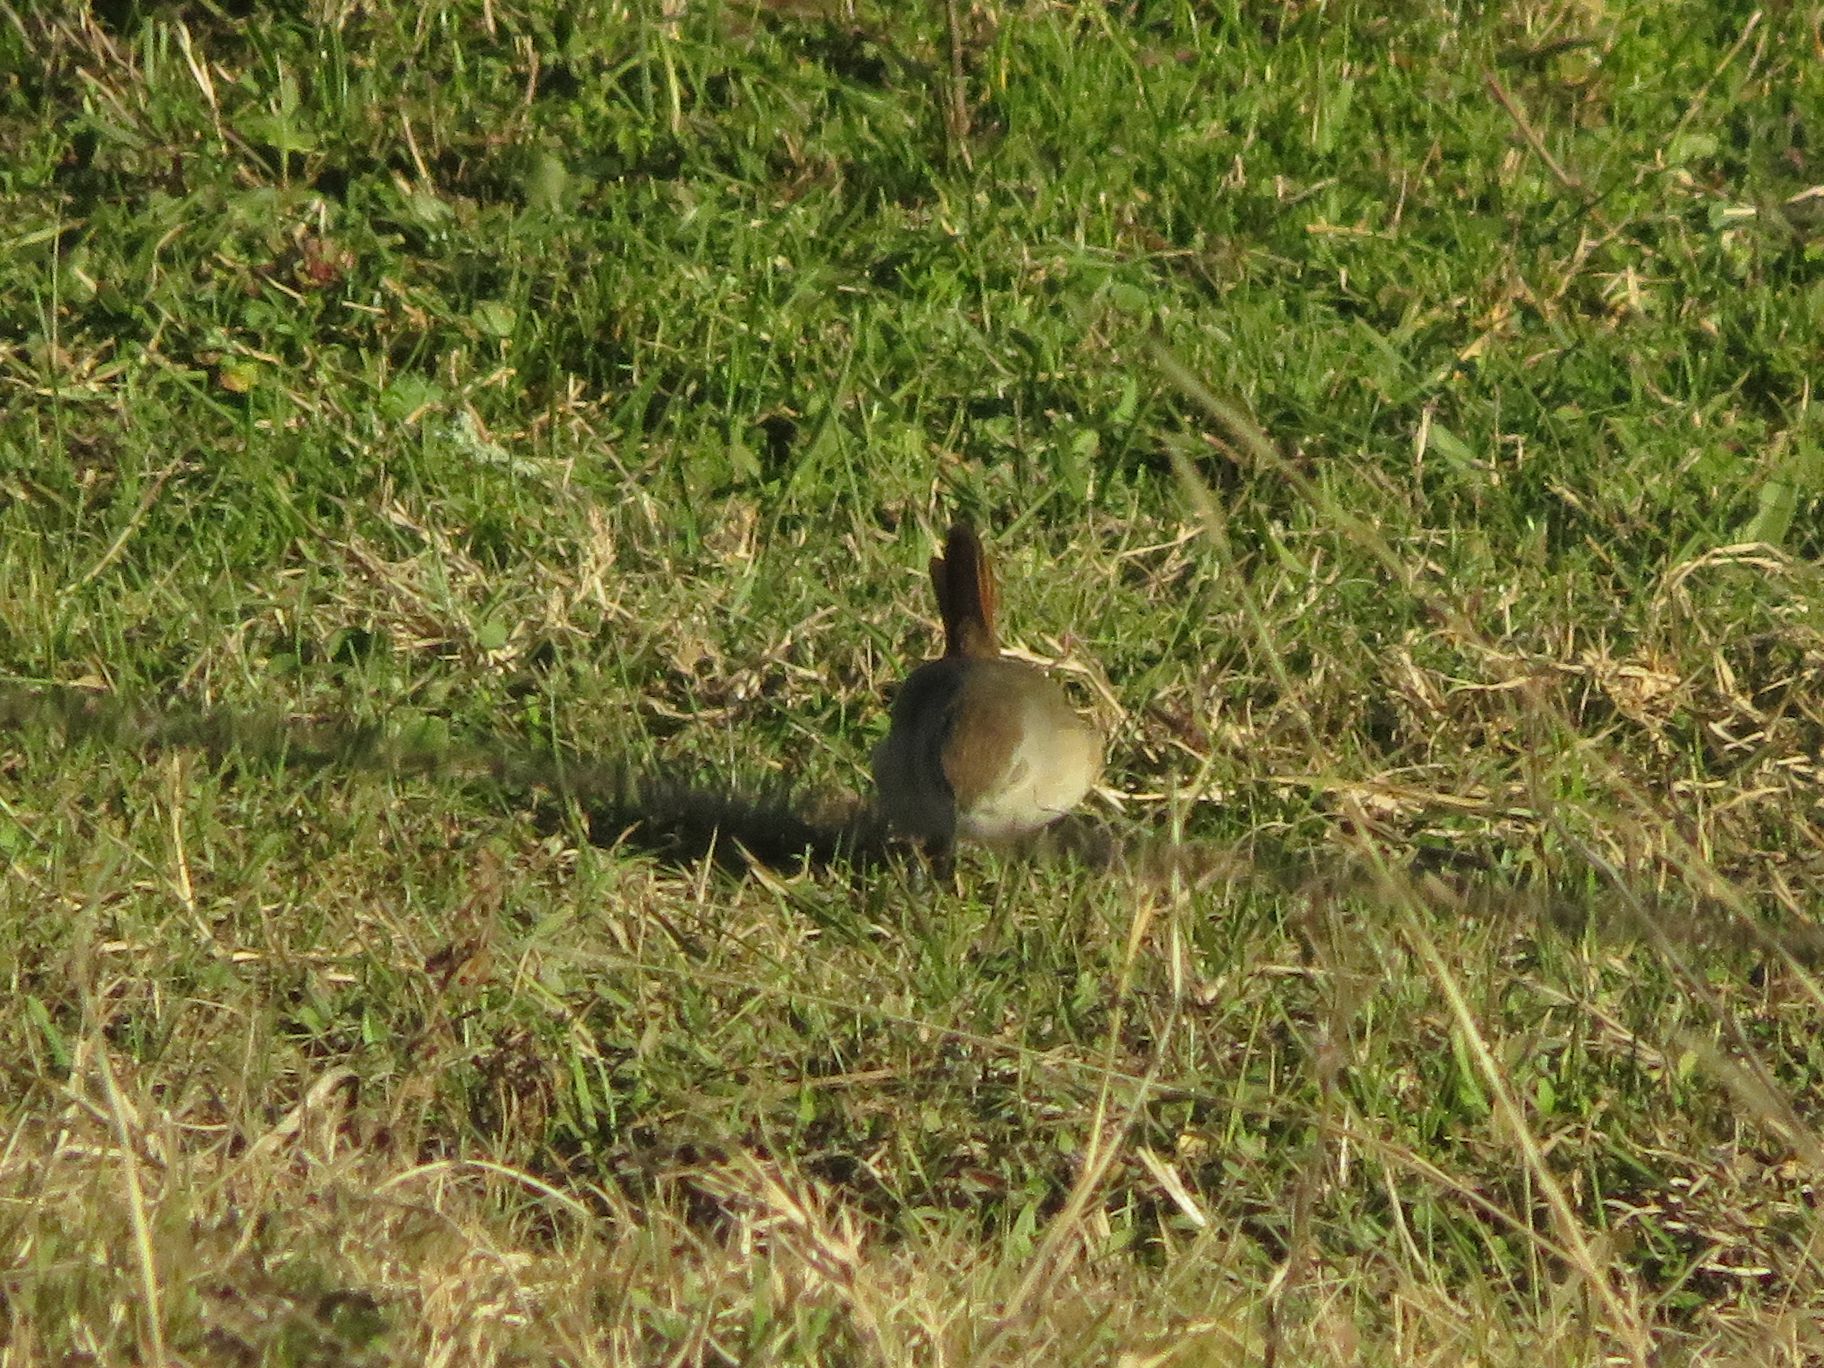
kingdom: Animalia
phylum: Chordata
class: Aves
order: Passeriformes
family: Furnariidae
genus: Asthenes
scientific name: Asthenes baeri
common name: Short-billed canastero
